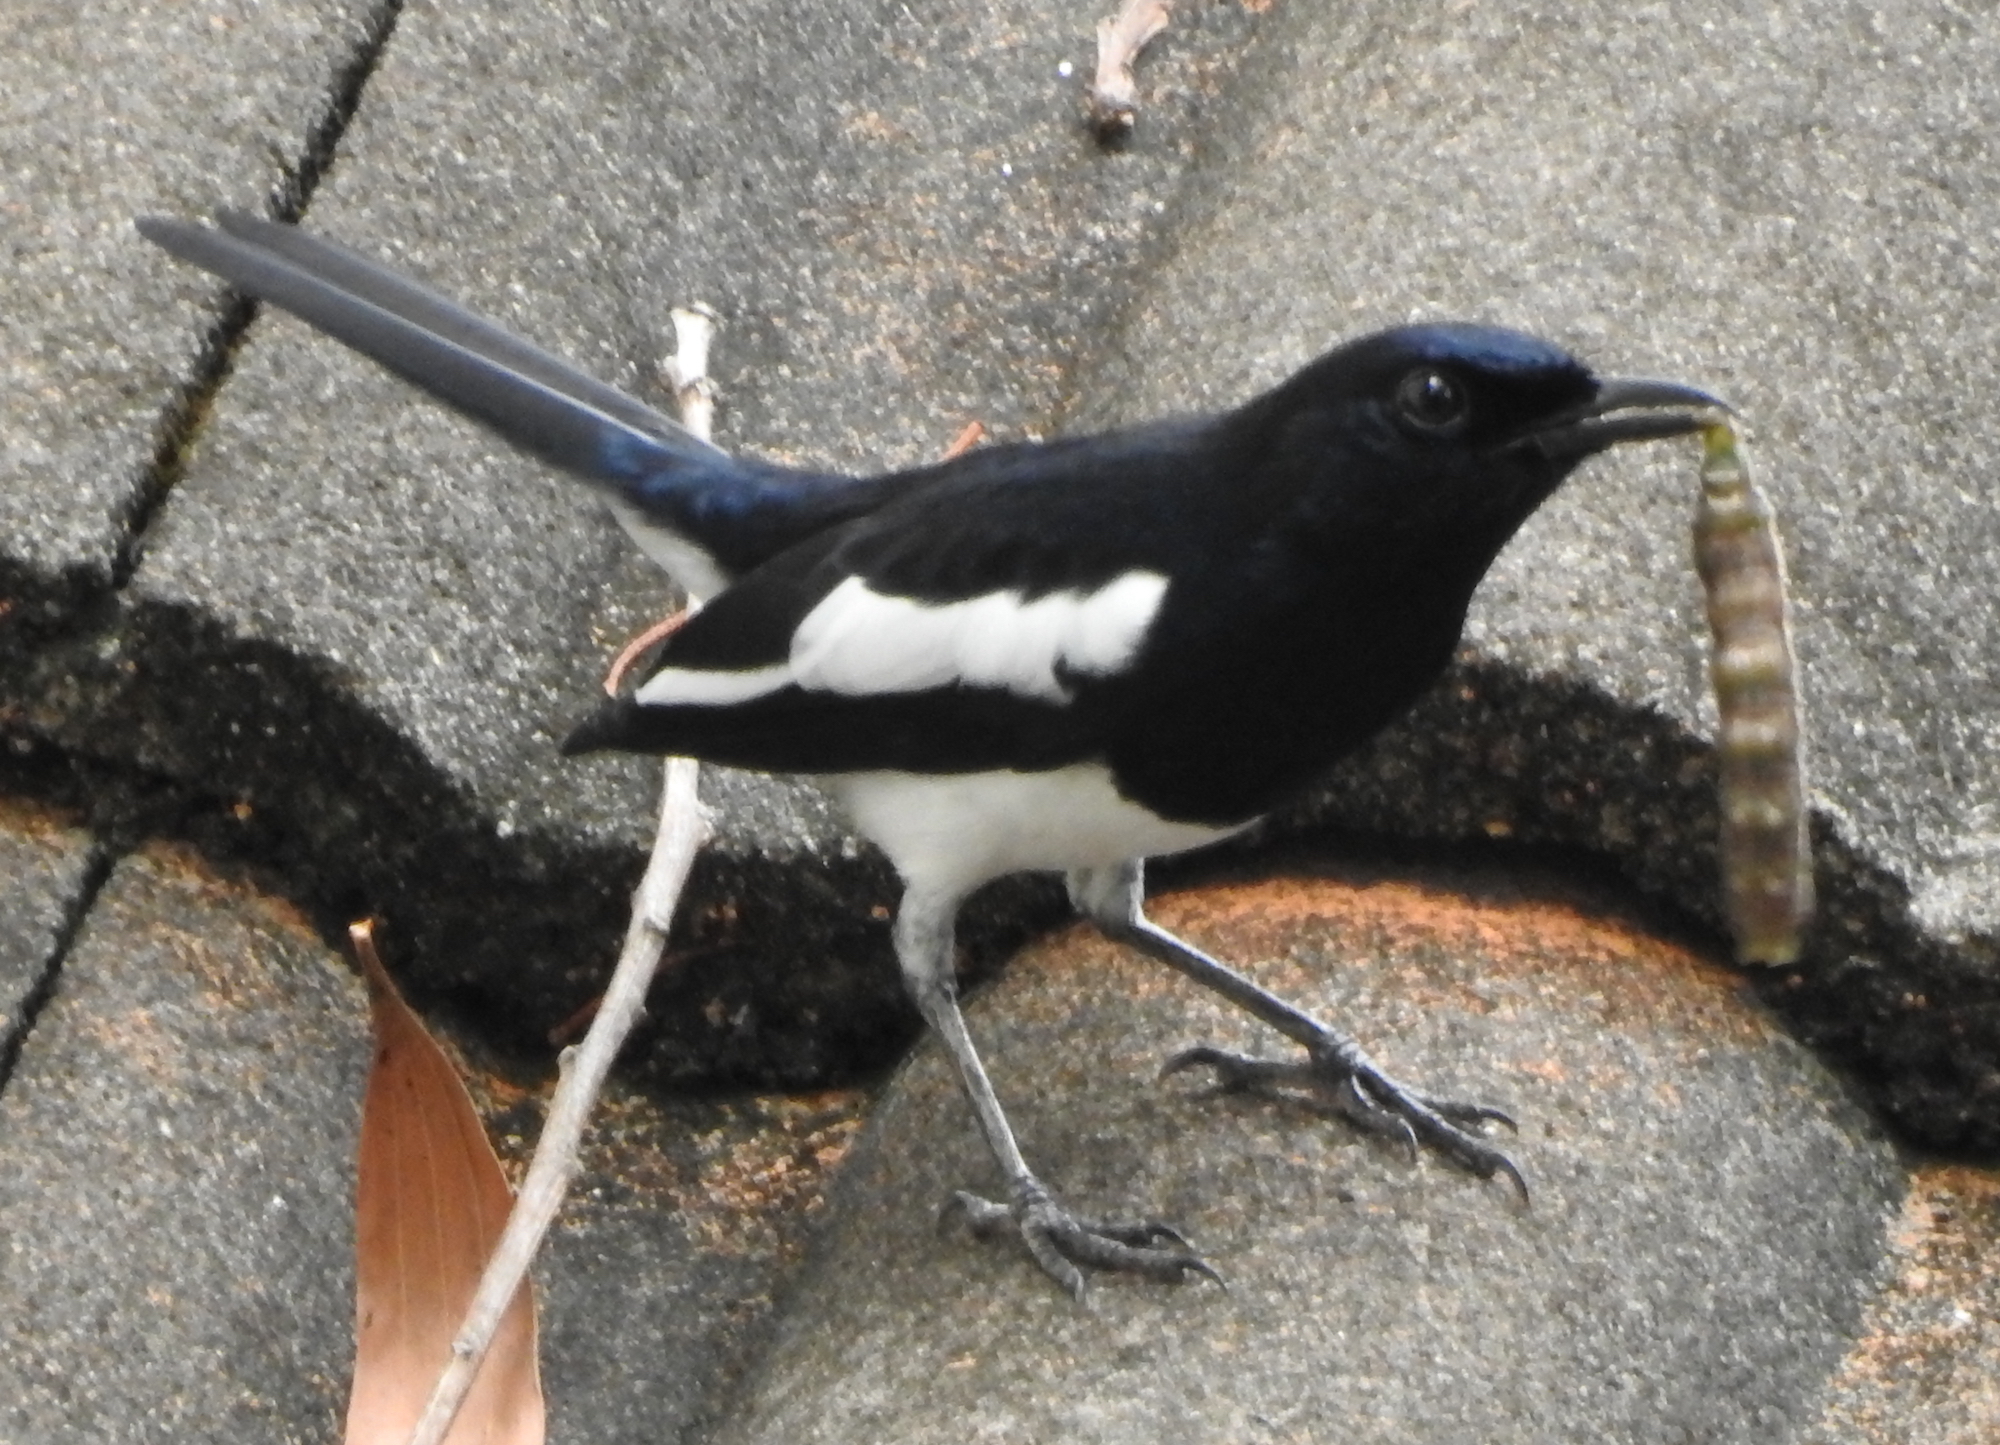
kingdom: Animalia
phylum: Chordata
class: Aves
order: Passeriformes
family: Muscicapidae
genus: Copsychus
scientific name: Copsychus saularis
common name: Oriental magpie-robin
